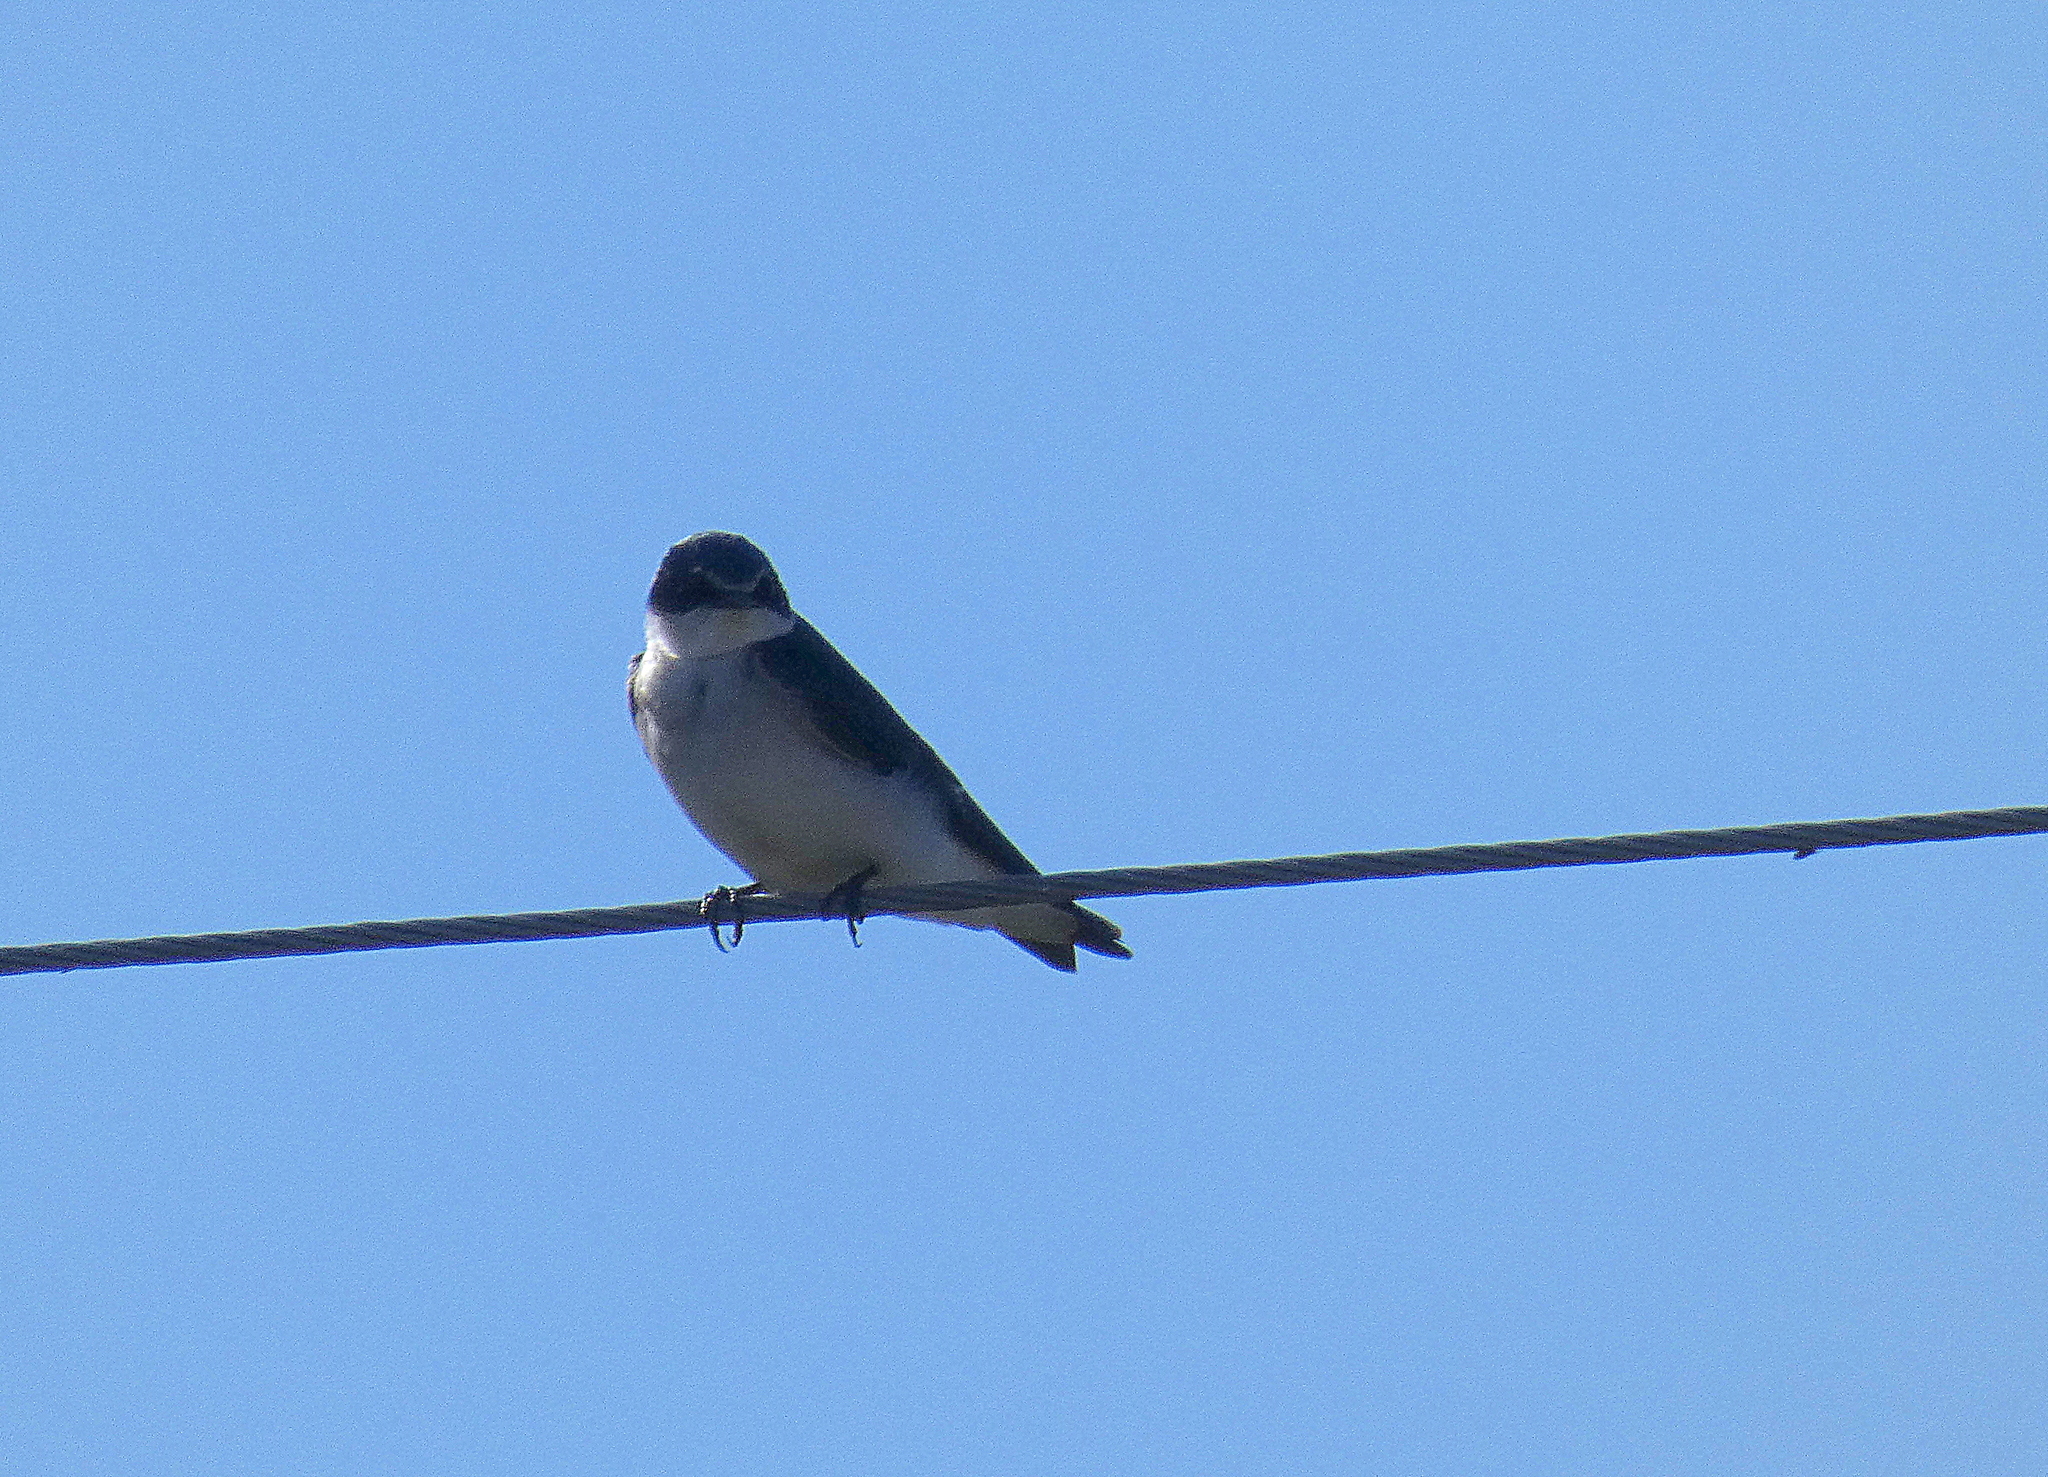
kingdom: Animalia
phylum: Chordata
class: Aves
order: Passeriformes
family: Hirundinidae
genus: Tachycineta
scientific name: Tachycineta leucorrhoa
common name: White-rumped swallow
